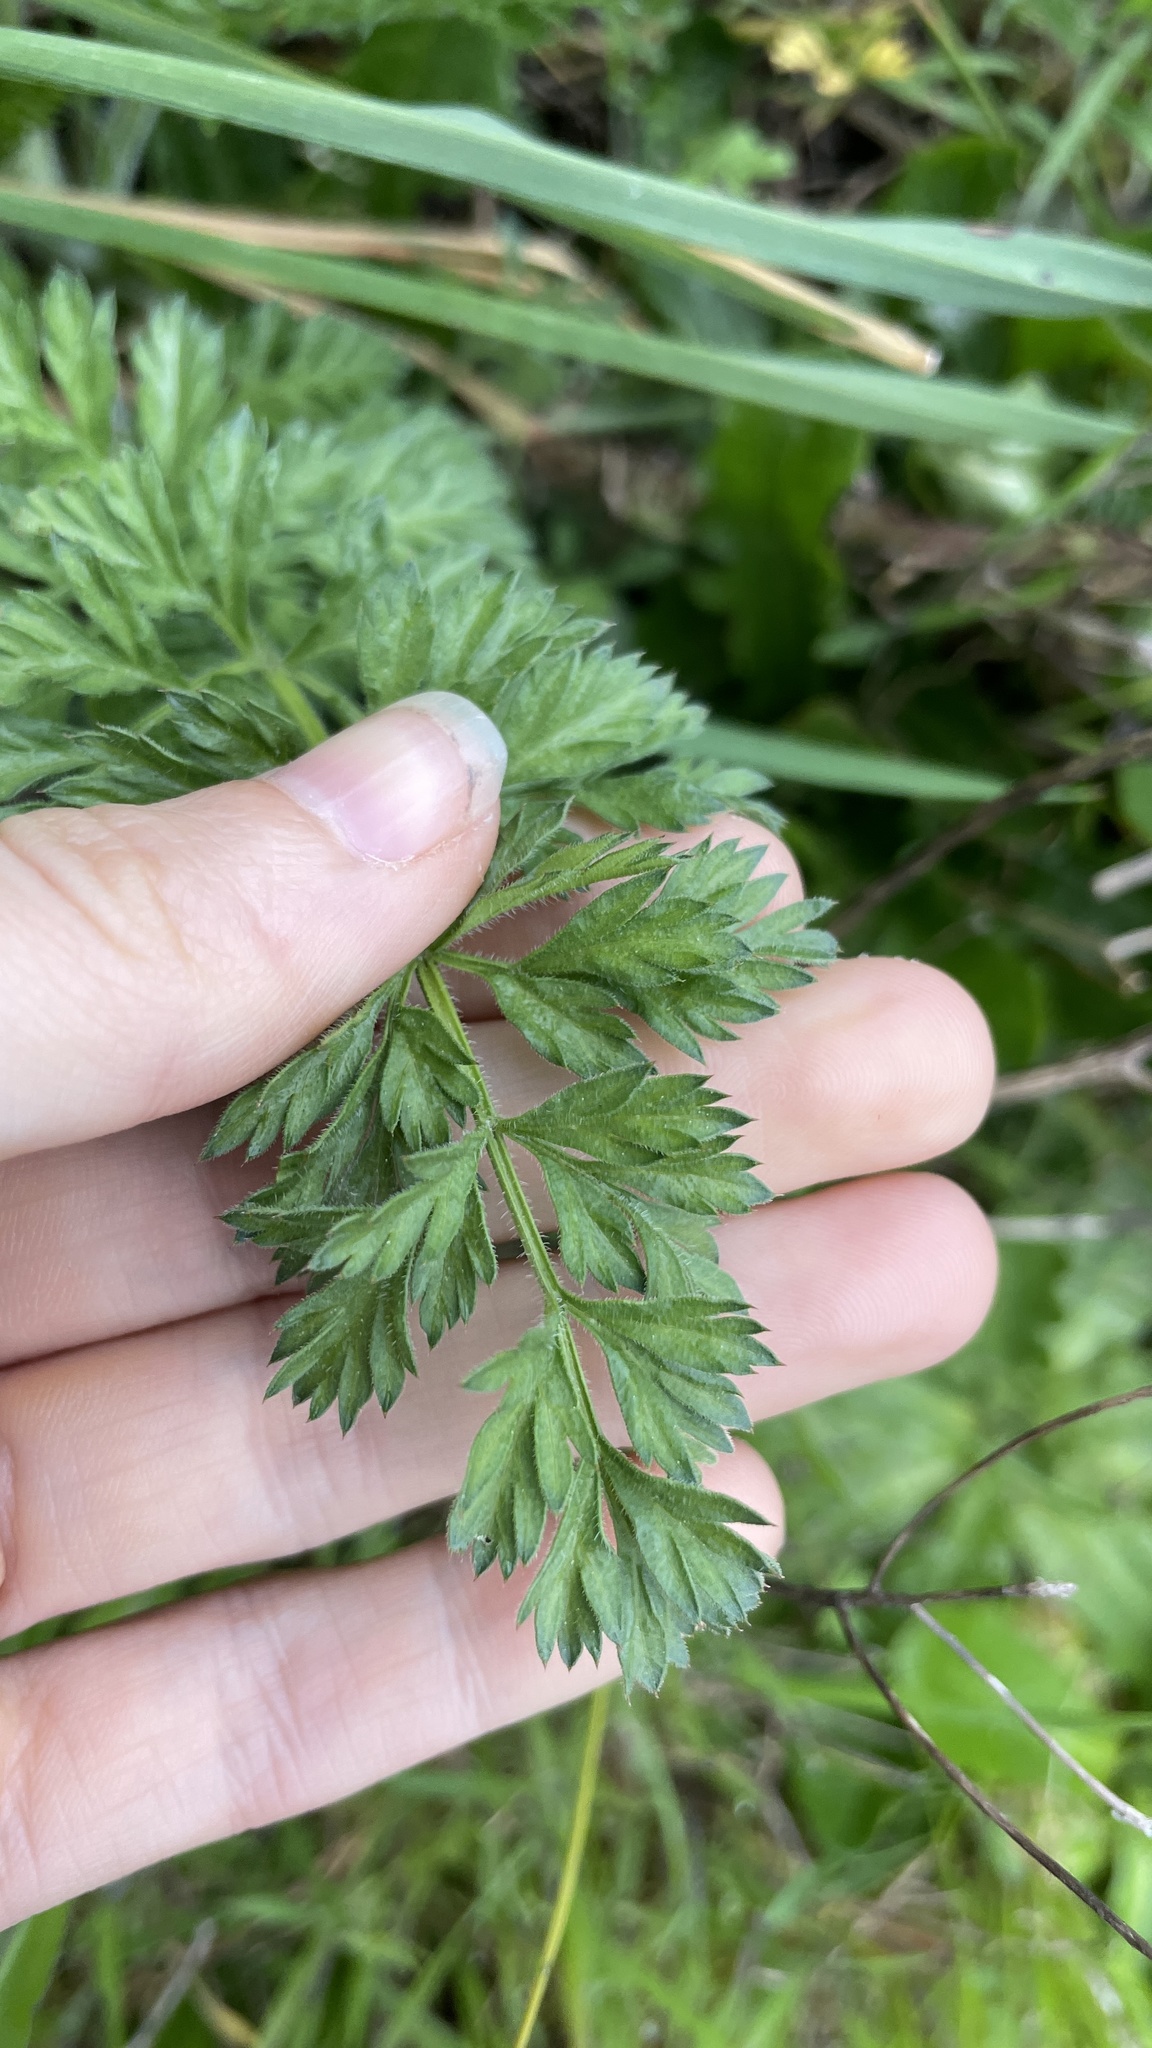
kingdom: Plantae
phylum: Tracheophyta
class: Magnoliopsida
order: Apiales
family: Apiaceae
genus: Daucus
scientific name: Daucus carota
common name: Wild carrot
